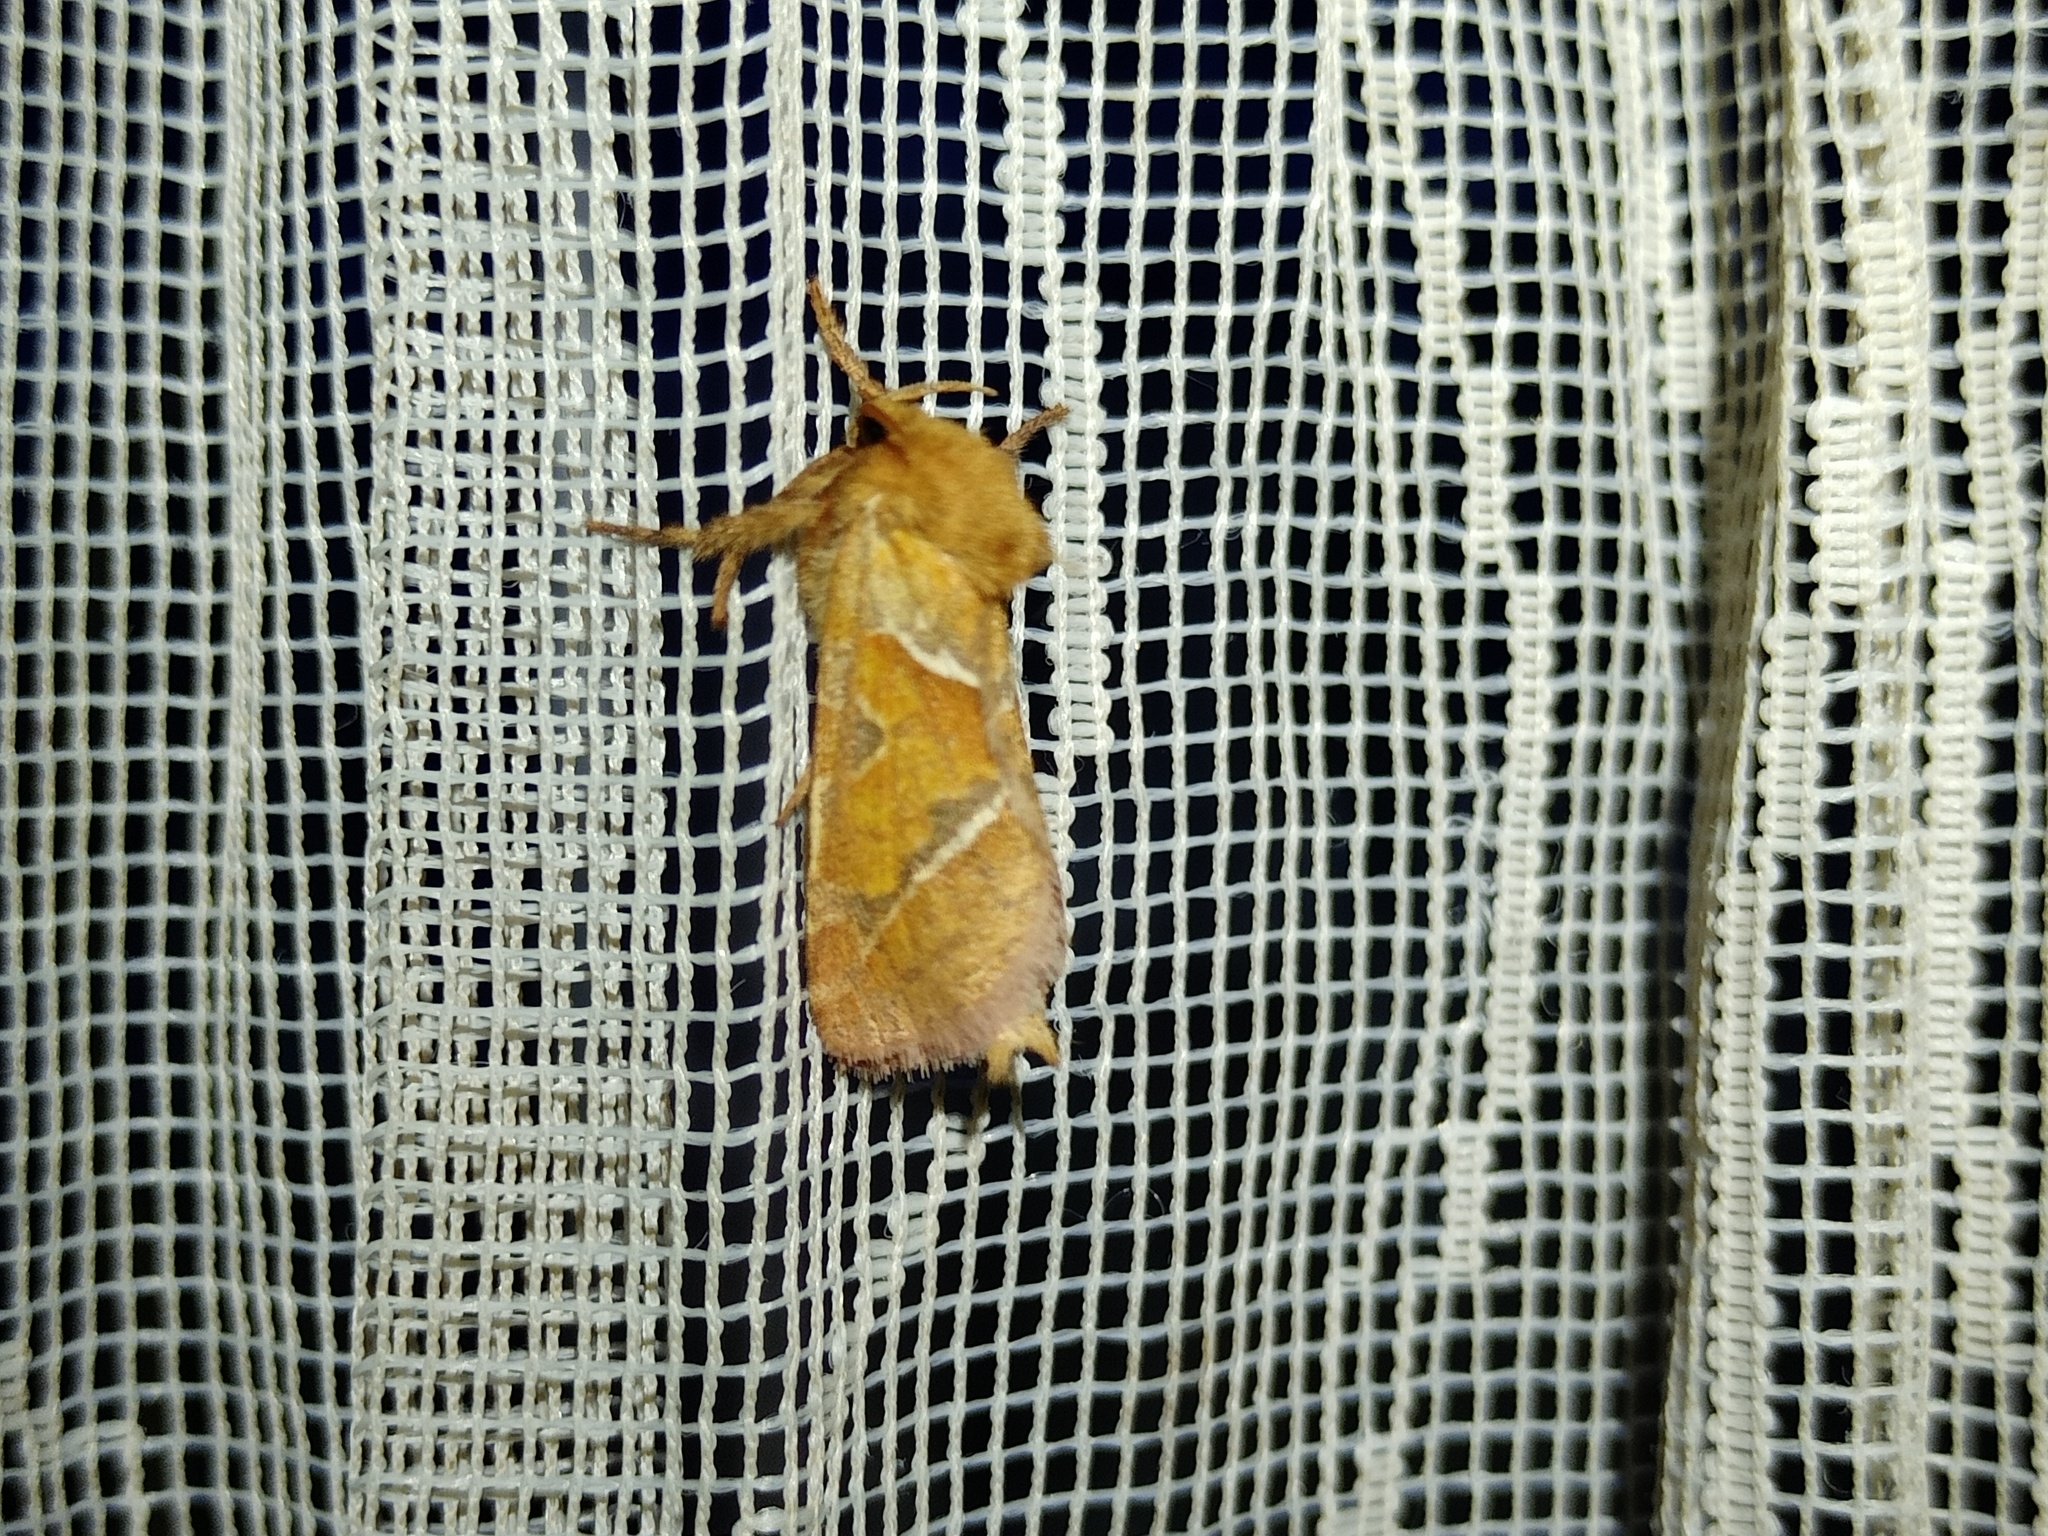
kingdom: Animalia
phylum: Arthropoda
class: Insecta
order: Lepidoptera
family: Hepialidae
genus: Triodia
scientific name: Triodia sylvina
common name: Orange swift
